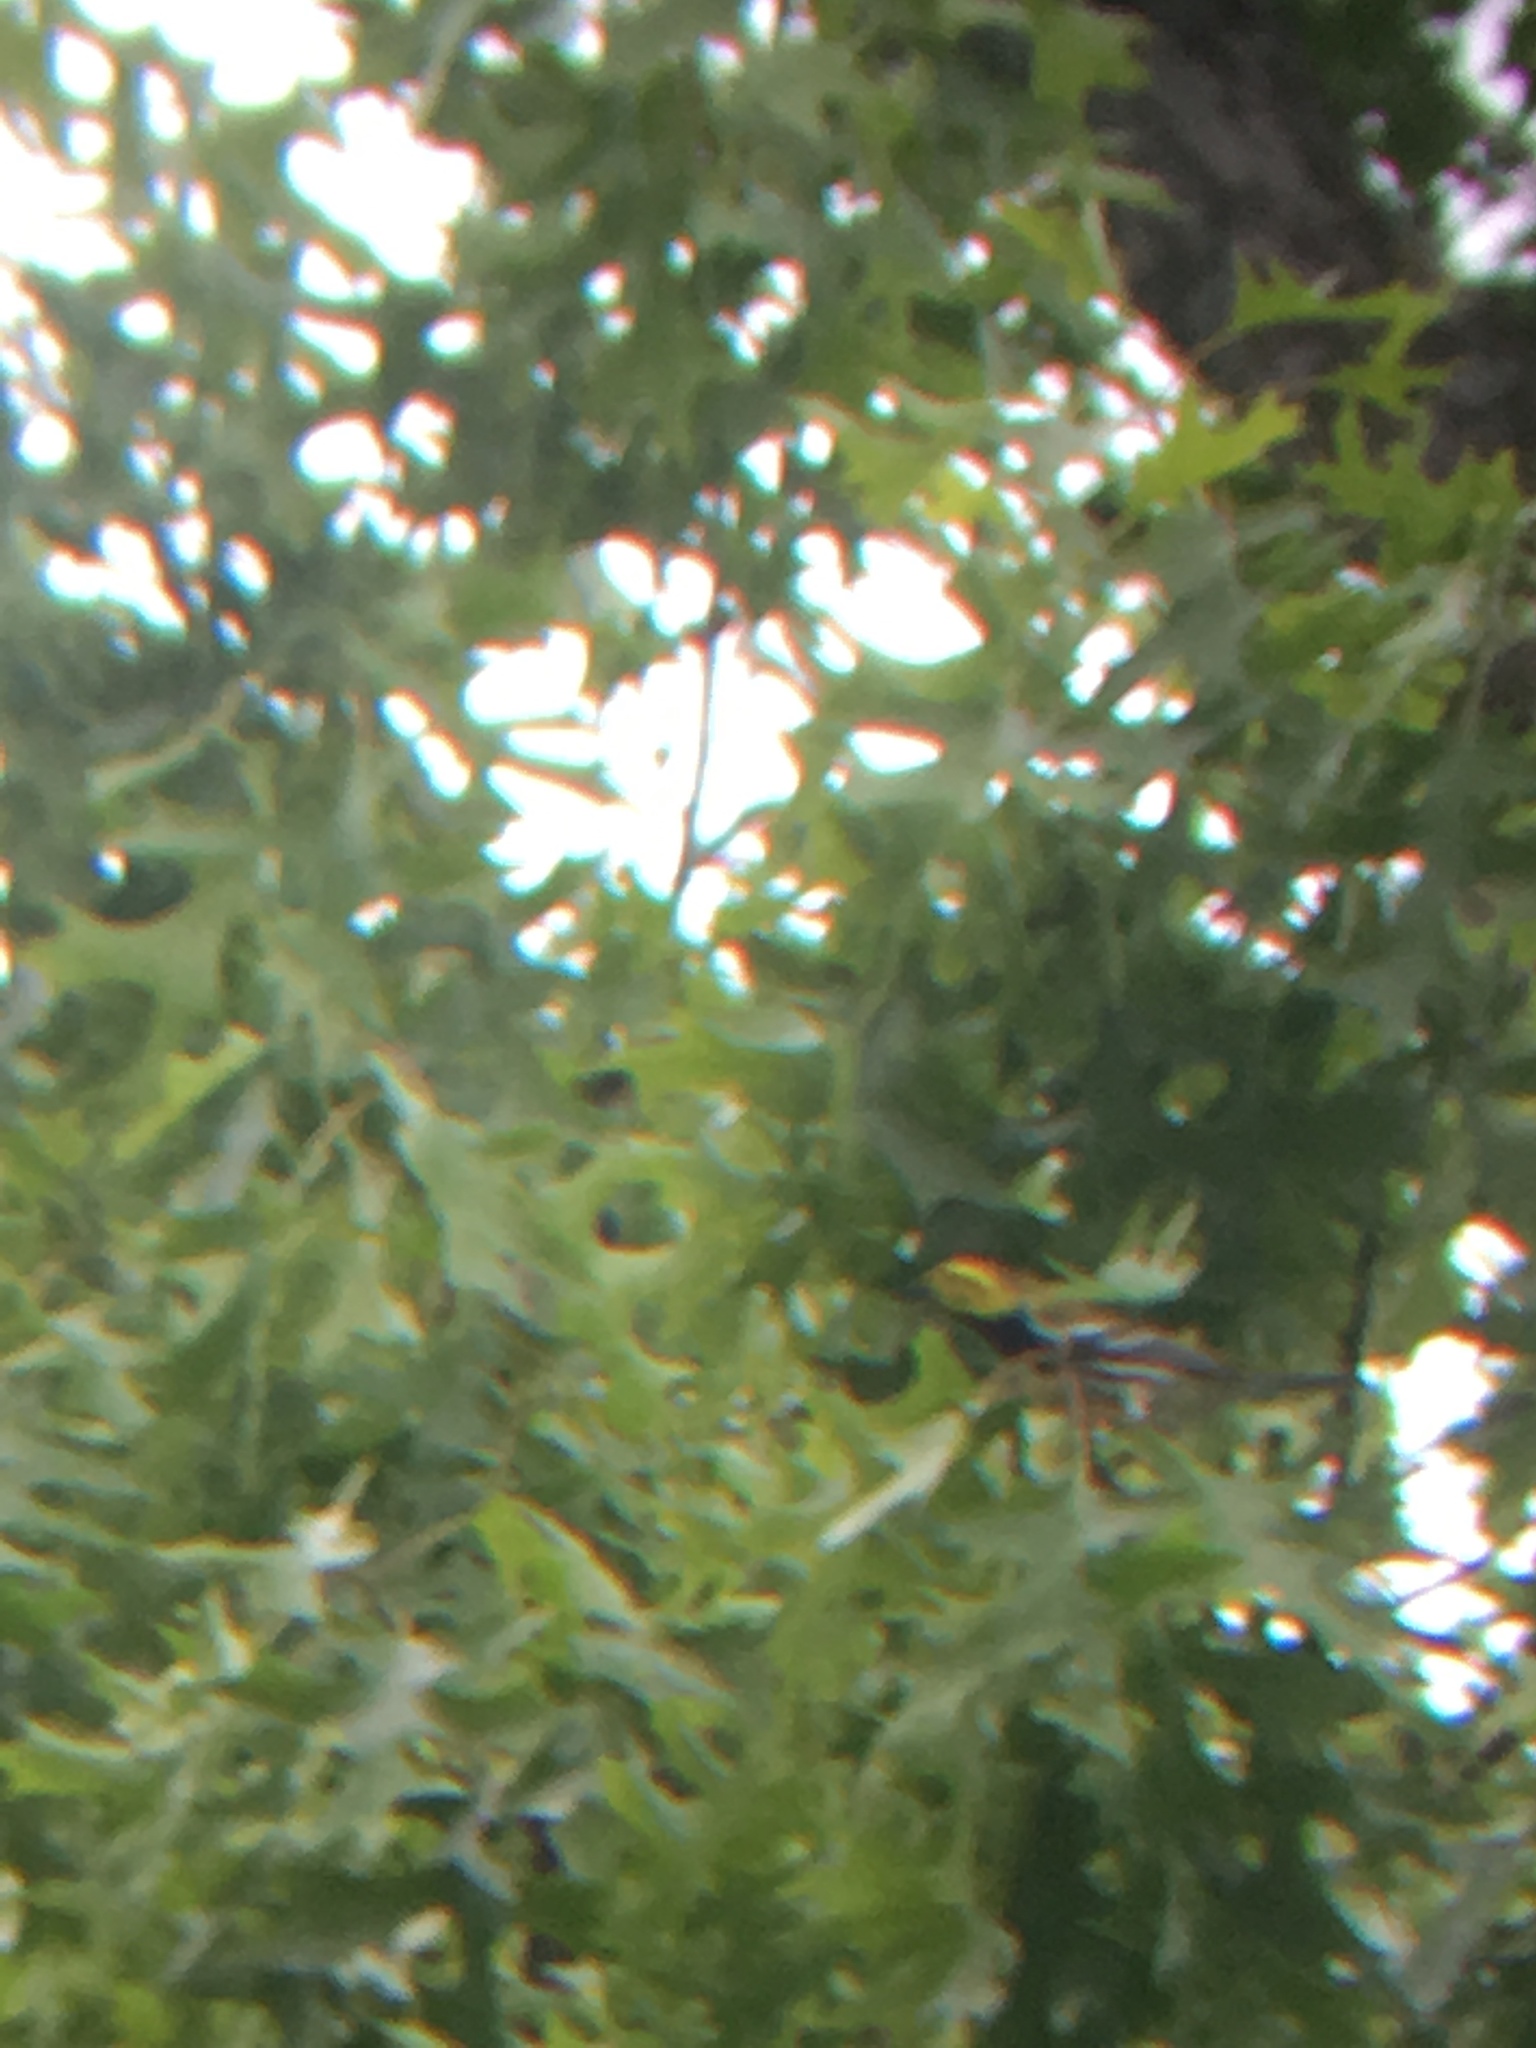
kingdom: Animalia
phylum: Chordata
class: Aves
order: Passeriformes
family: Parulidae
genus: Setophaga
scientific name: Setophaga virens
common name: Black-throated green warbler
